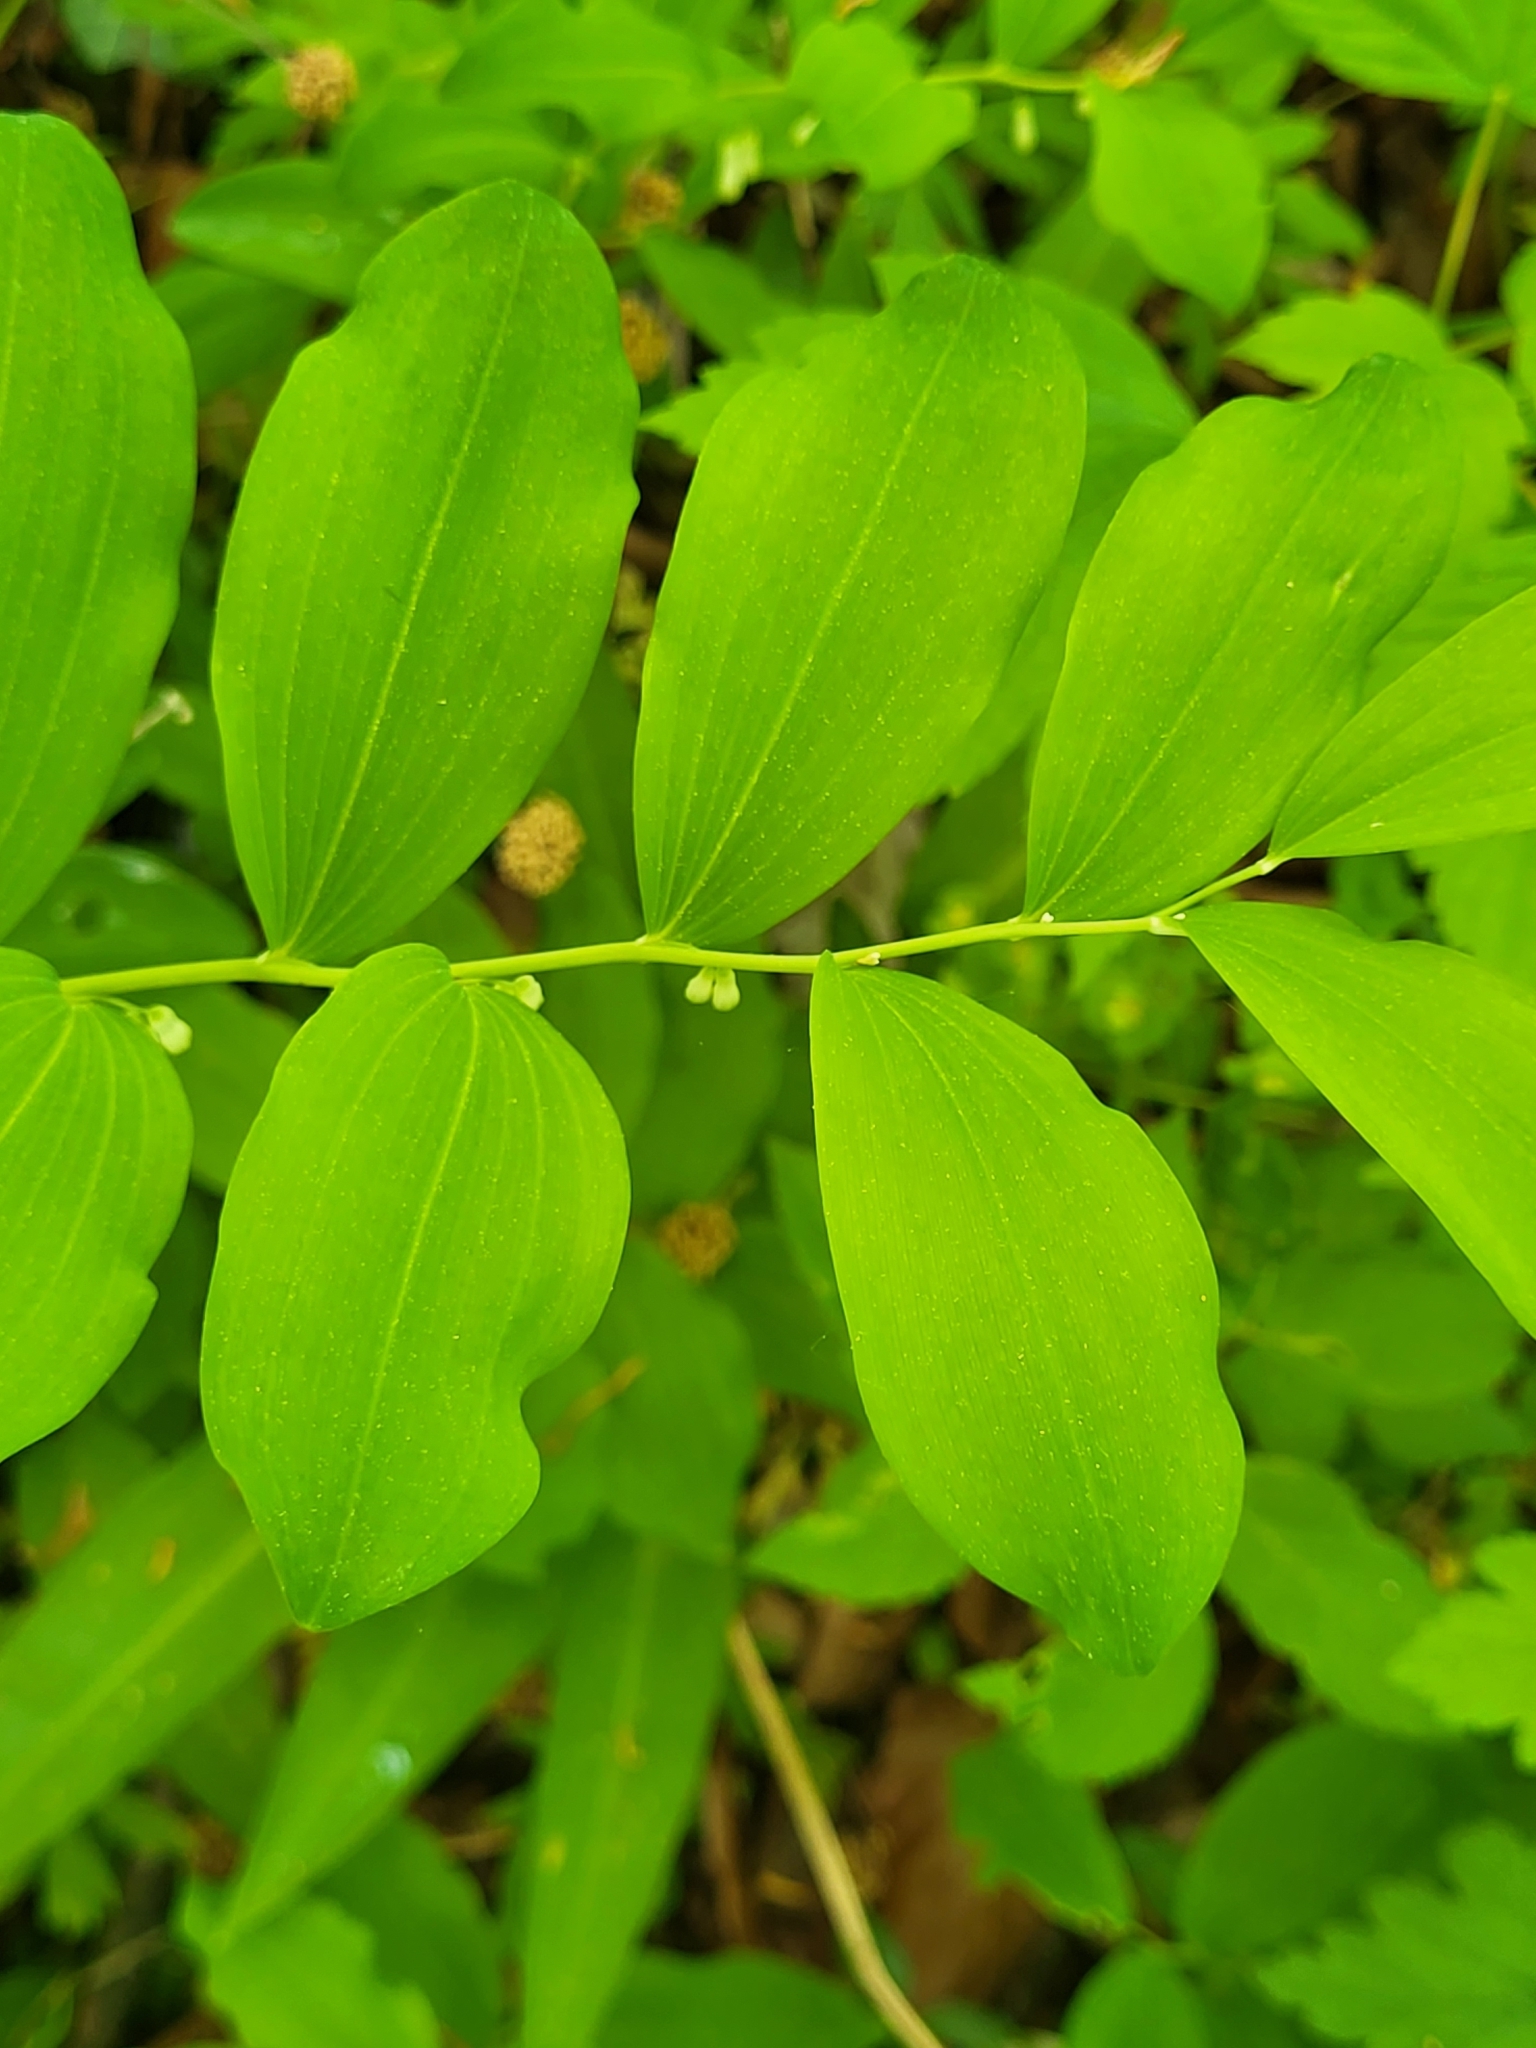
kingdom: Plantae
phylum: Tracheophyta
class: Liliopsida
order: Asparagales
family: Asparagaceae
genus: Polygonatum
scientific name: Polygonatum multiflorum
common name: Solomon's-seal
